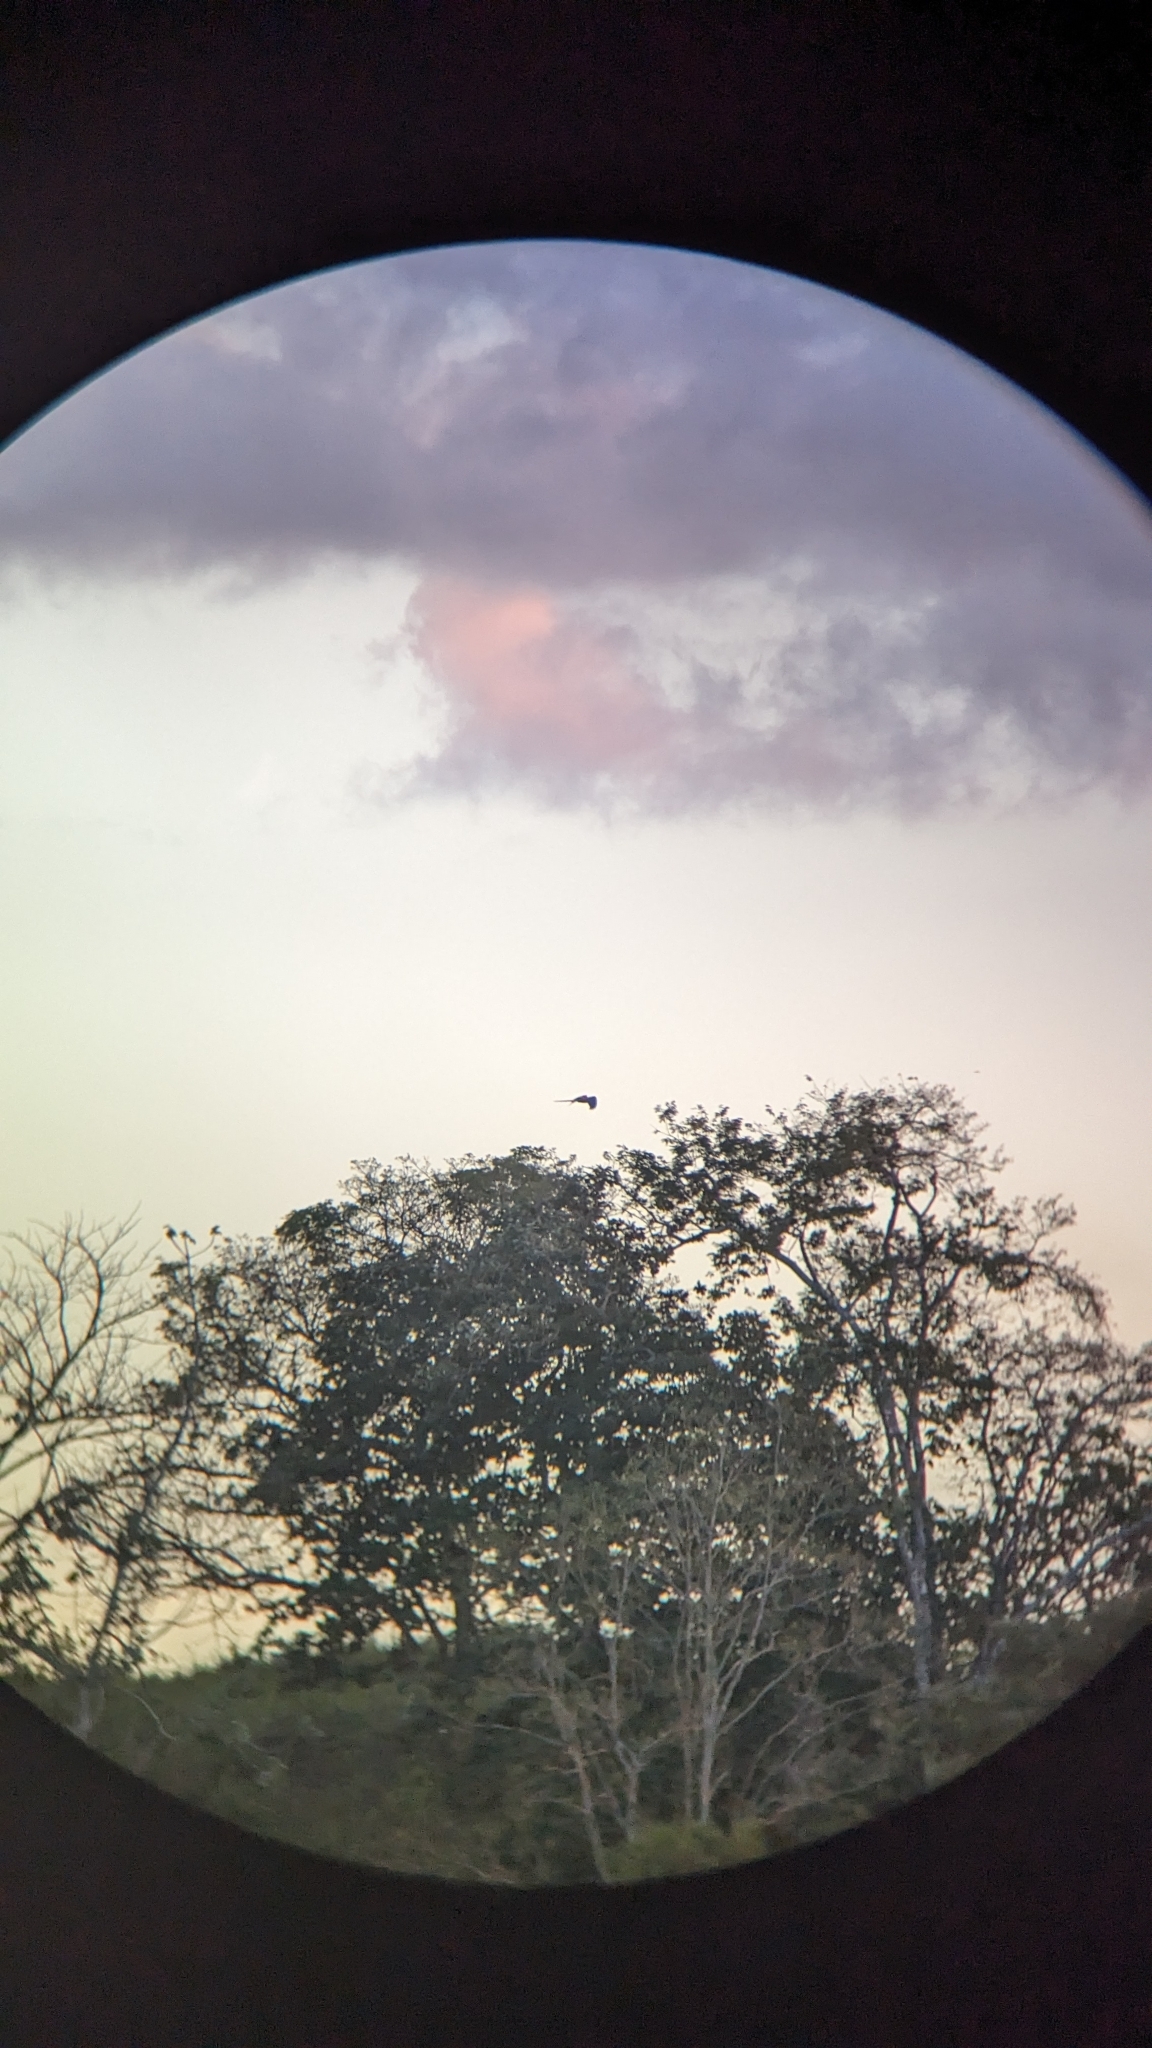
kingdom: Animalia
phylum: Chordata
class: Aves
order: Psittaciformes
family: Psittacidae
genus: Ara
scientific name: Ara macao
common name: Scarlet macaw
